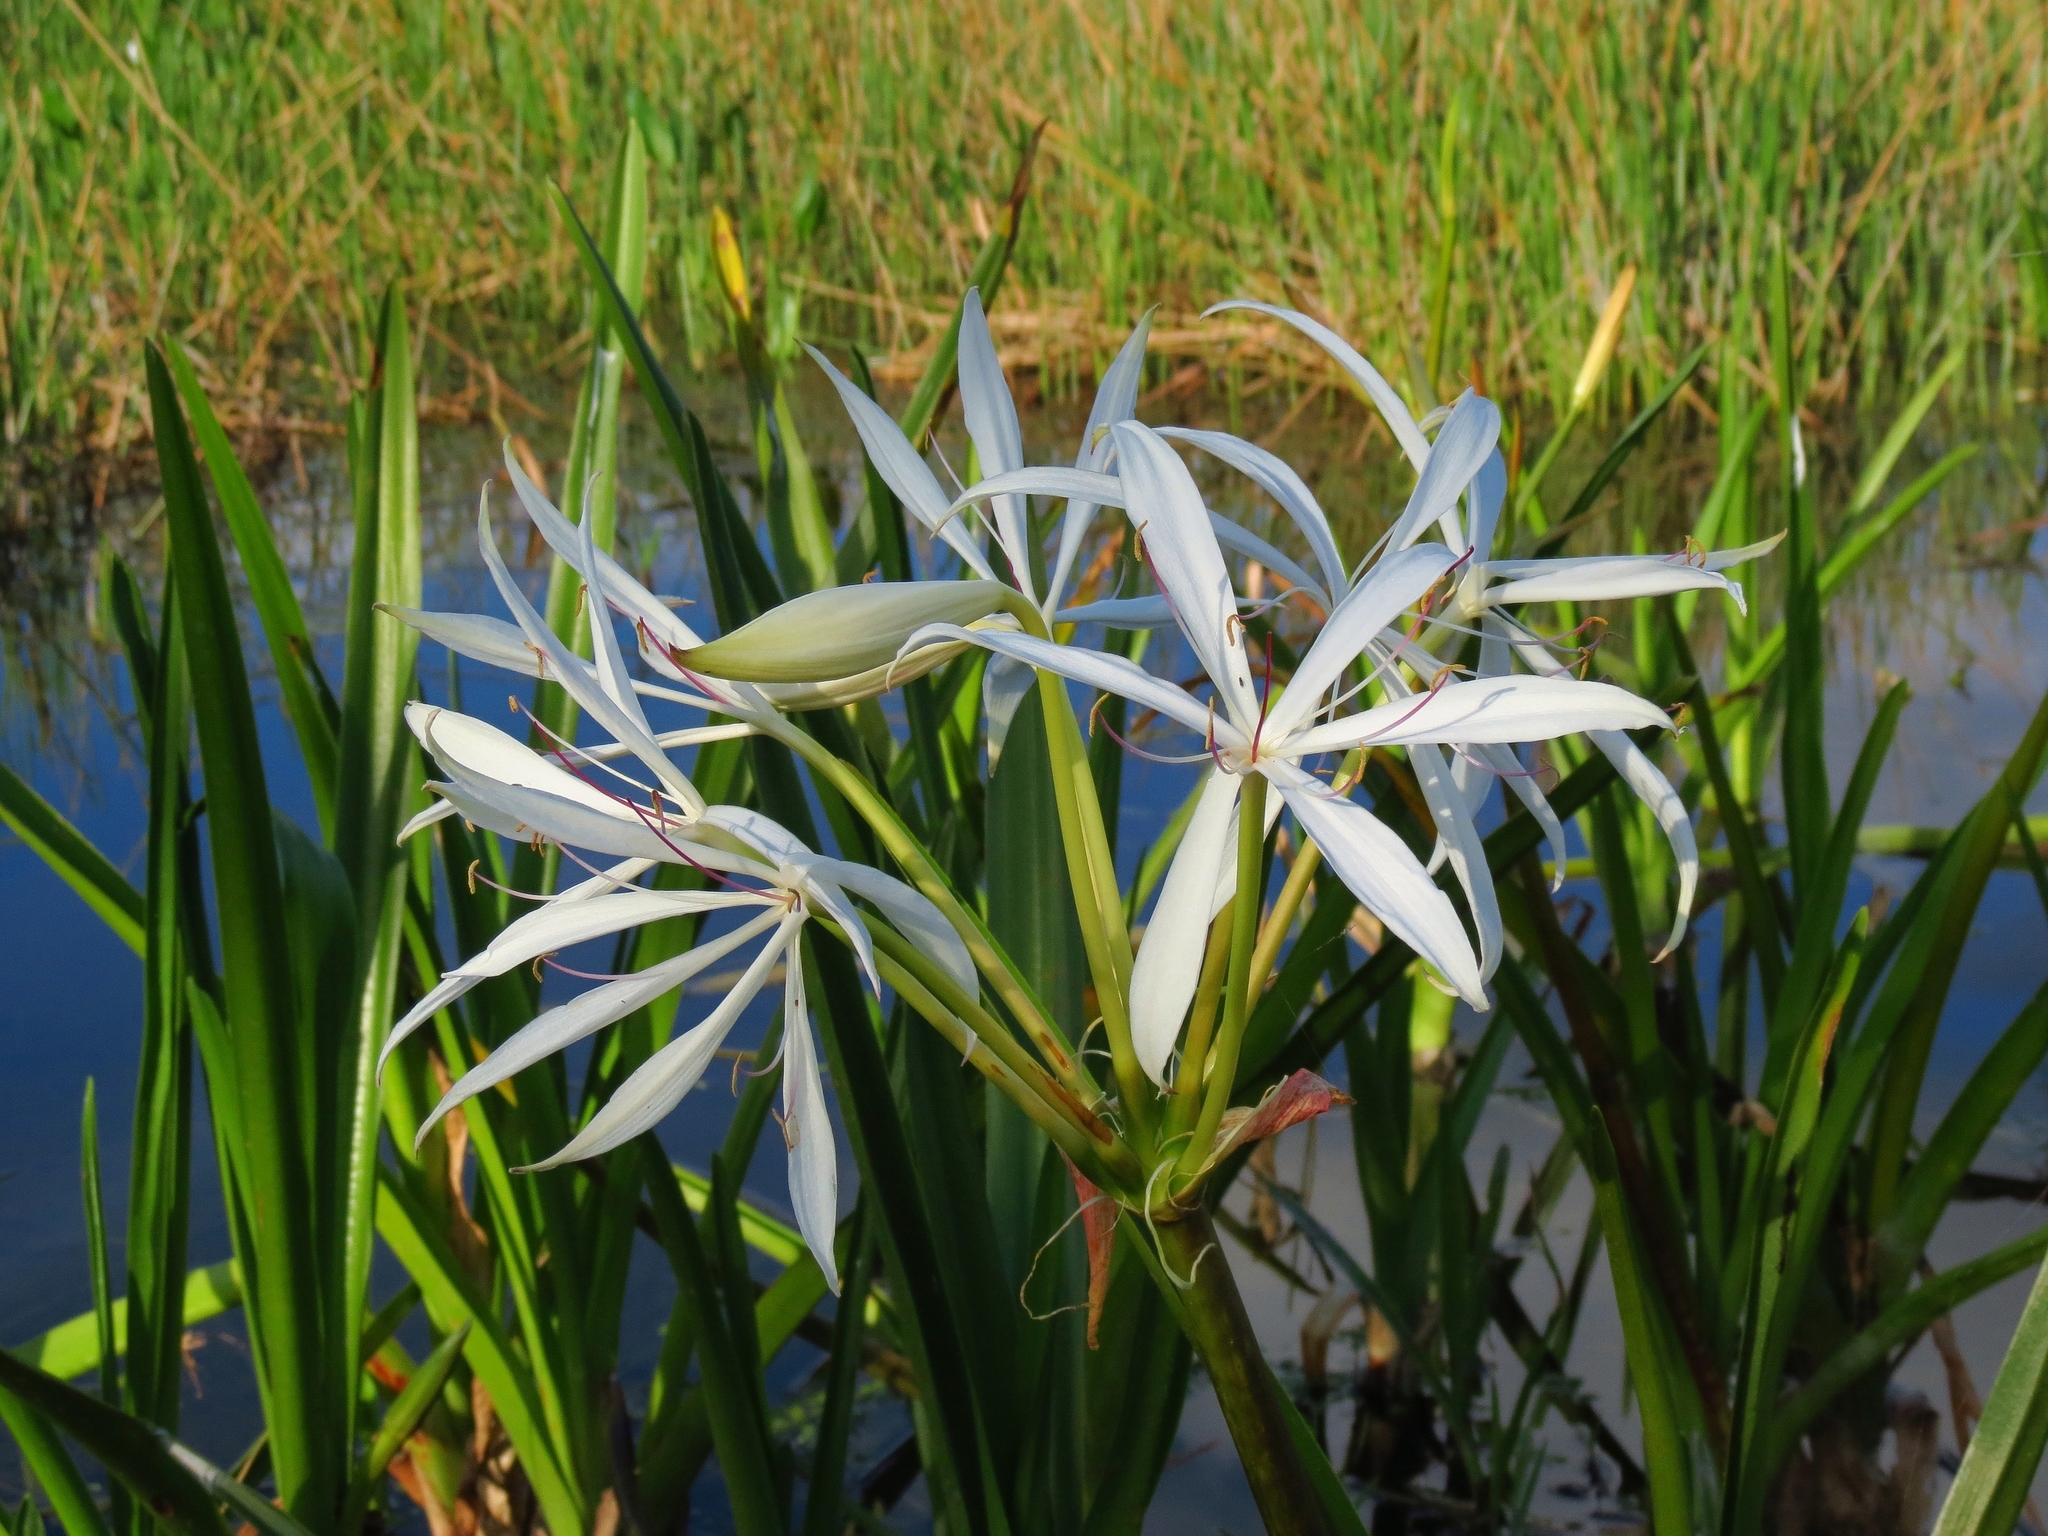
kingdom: Plantae
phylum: Tracheophyta
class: Liliopsida
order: Asparagales
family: Amaryllidaceae
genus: Crinum
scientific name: Crinum americanum
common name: Florida swamp-lily
